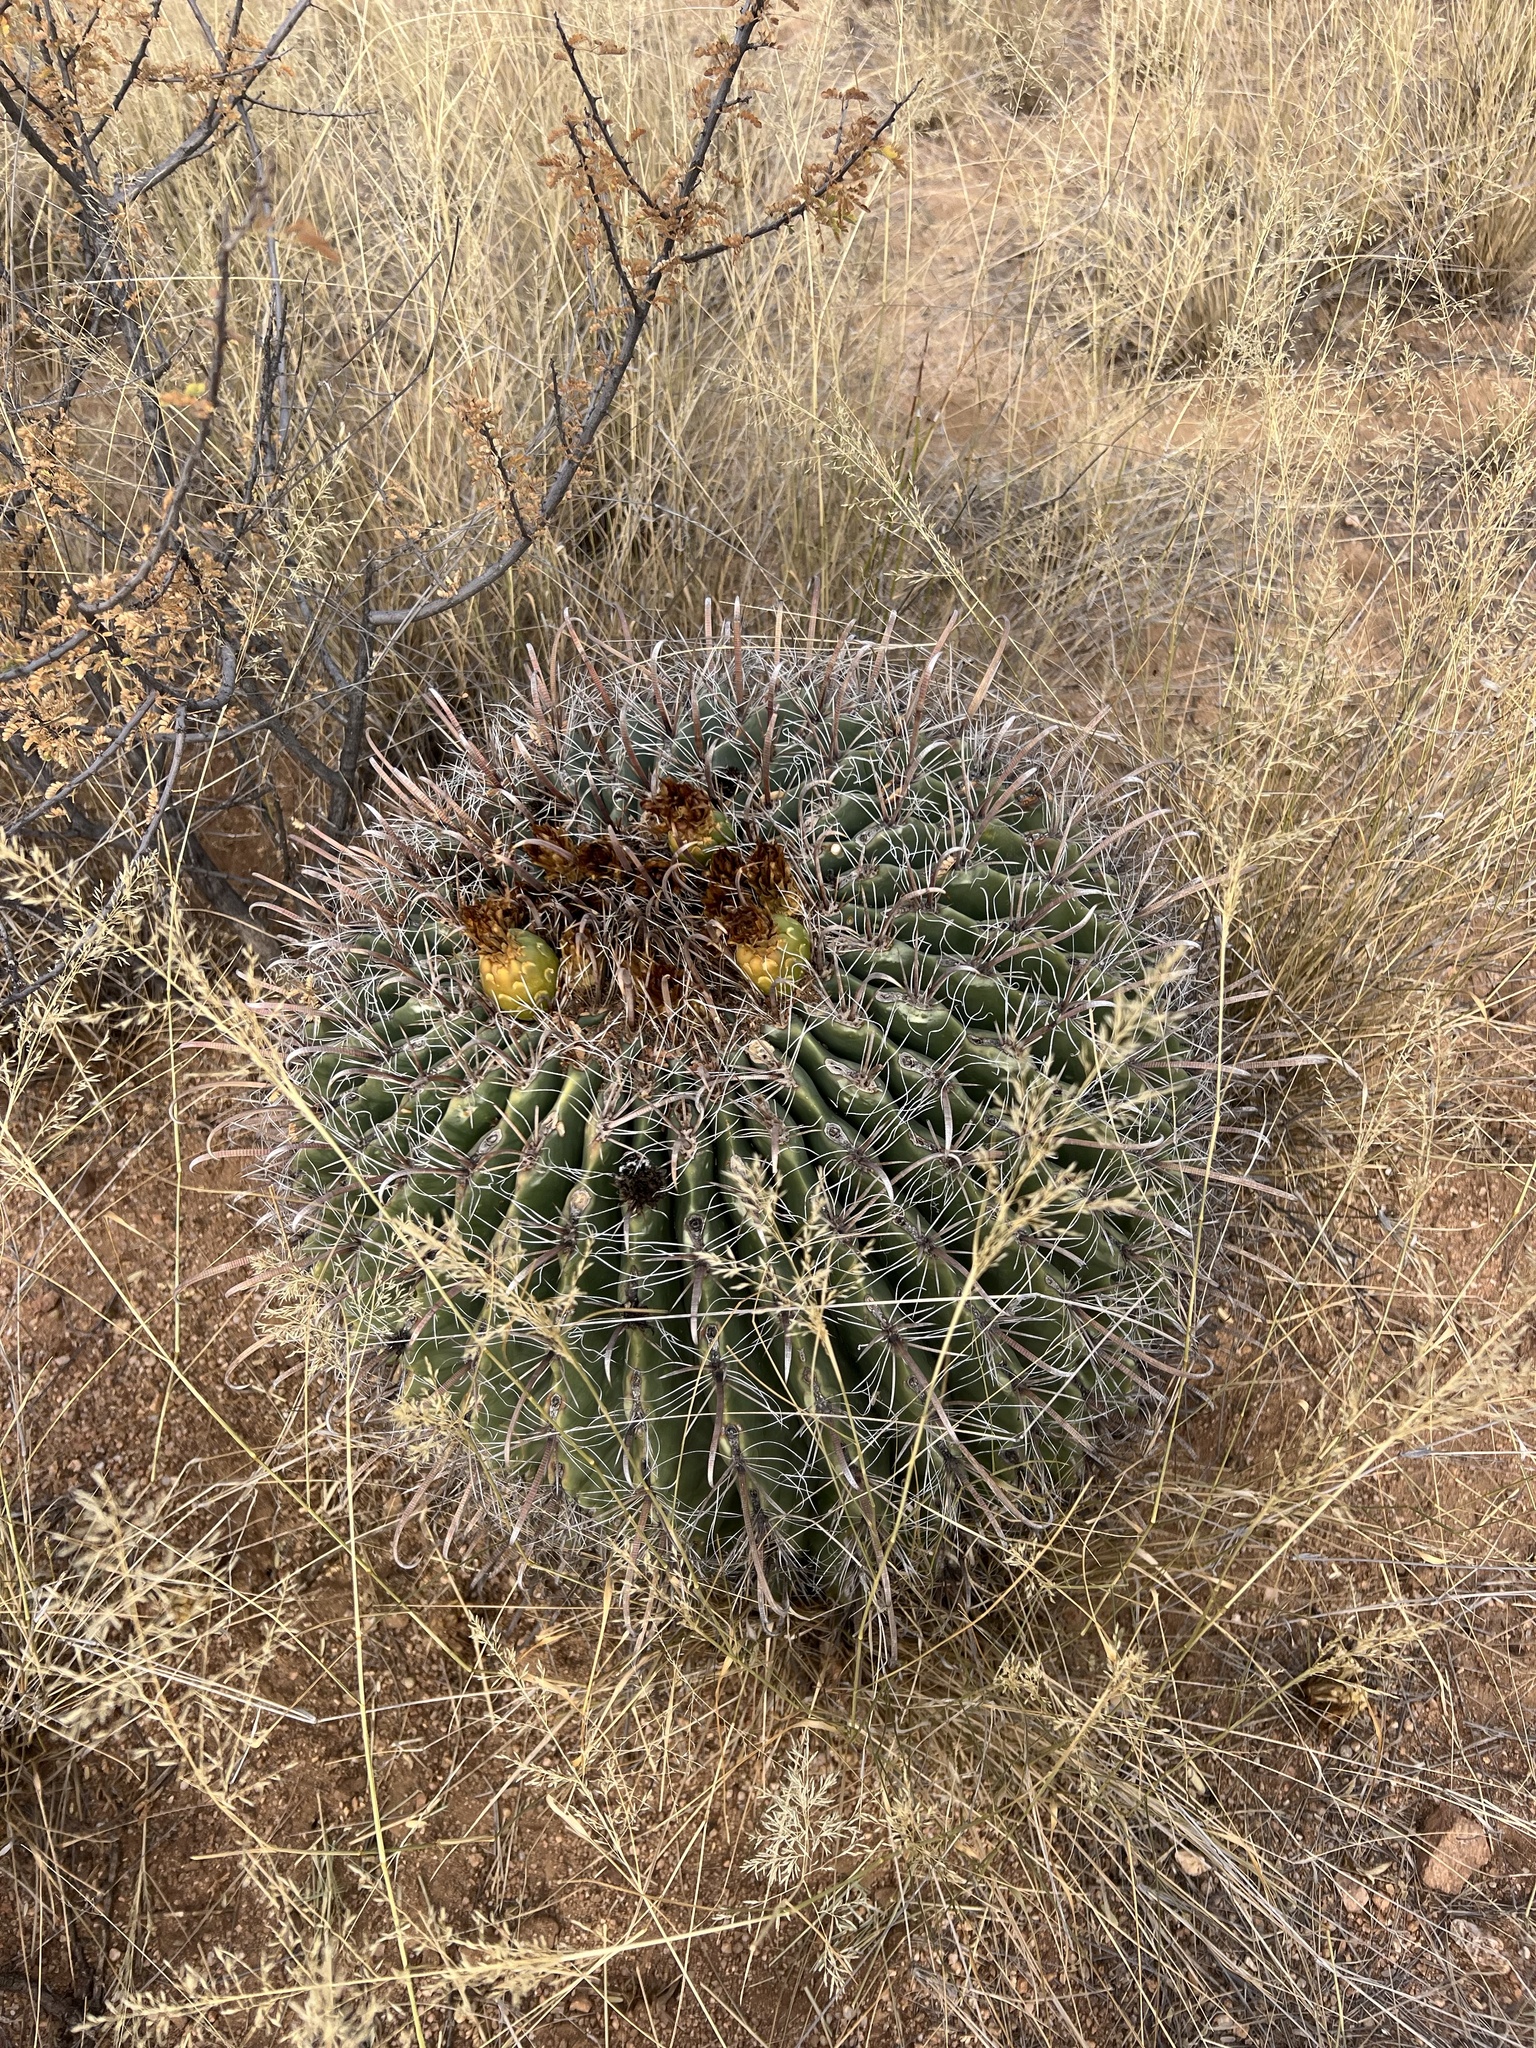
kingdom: Plantae
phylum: Tracheophyta
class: Magnoliopsida
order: Caryophyllales
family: Cactaceae
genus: Ferocactus
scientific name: Ferocactus wislizeni
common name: Candy barrel cactus
